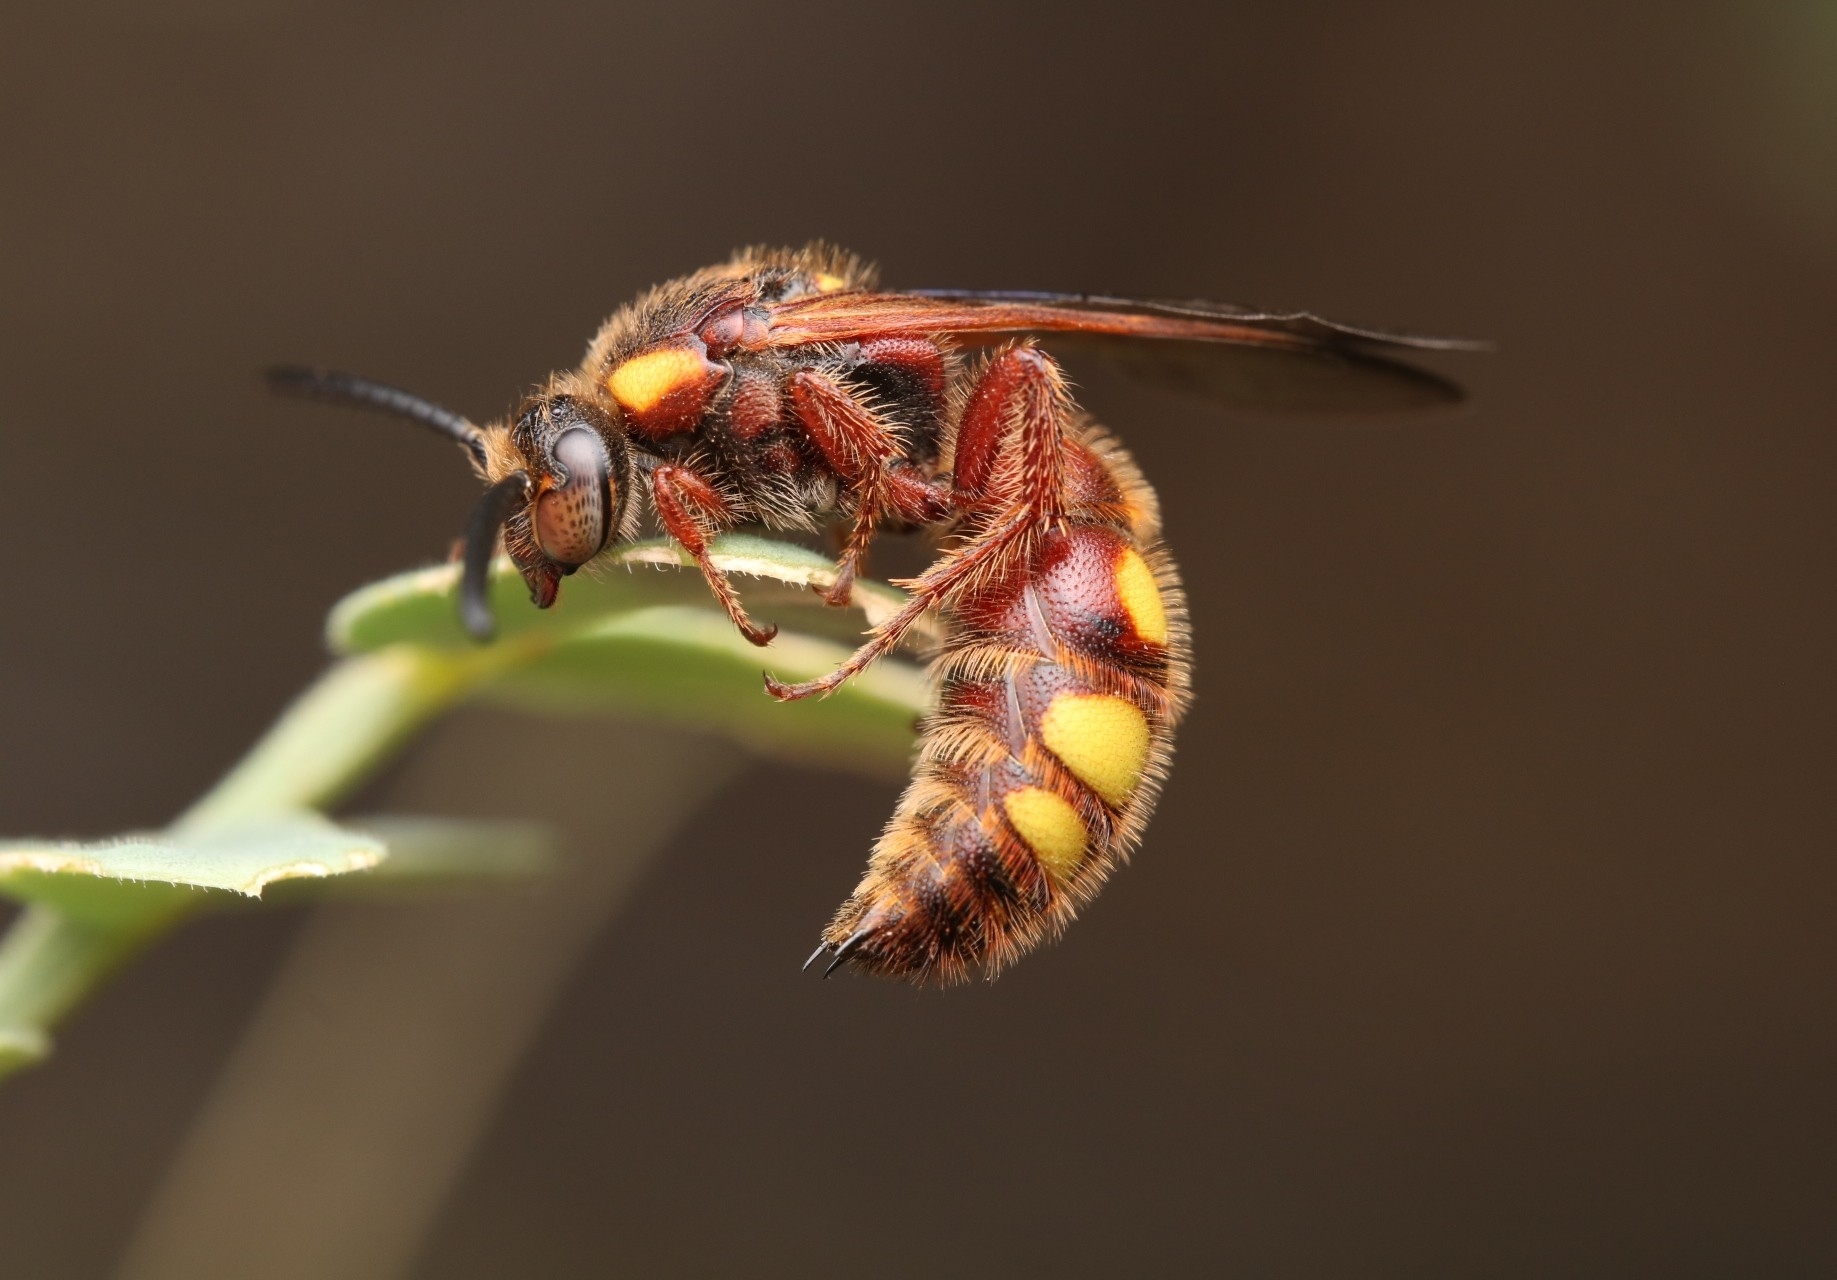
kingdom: Animalia
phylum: Arthropoda
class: Insecta
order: Hymenoptera
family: Scoliidae
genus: Scolia
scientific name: Scolia nobilitata
